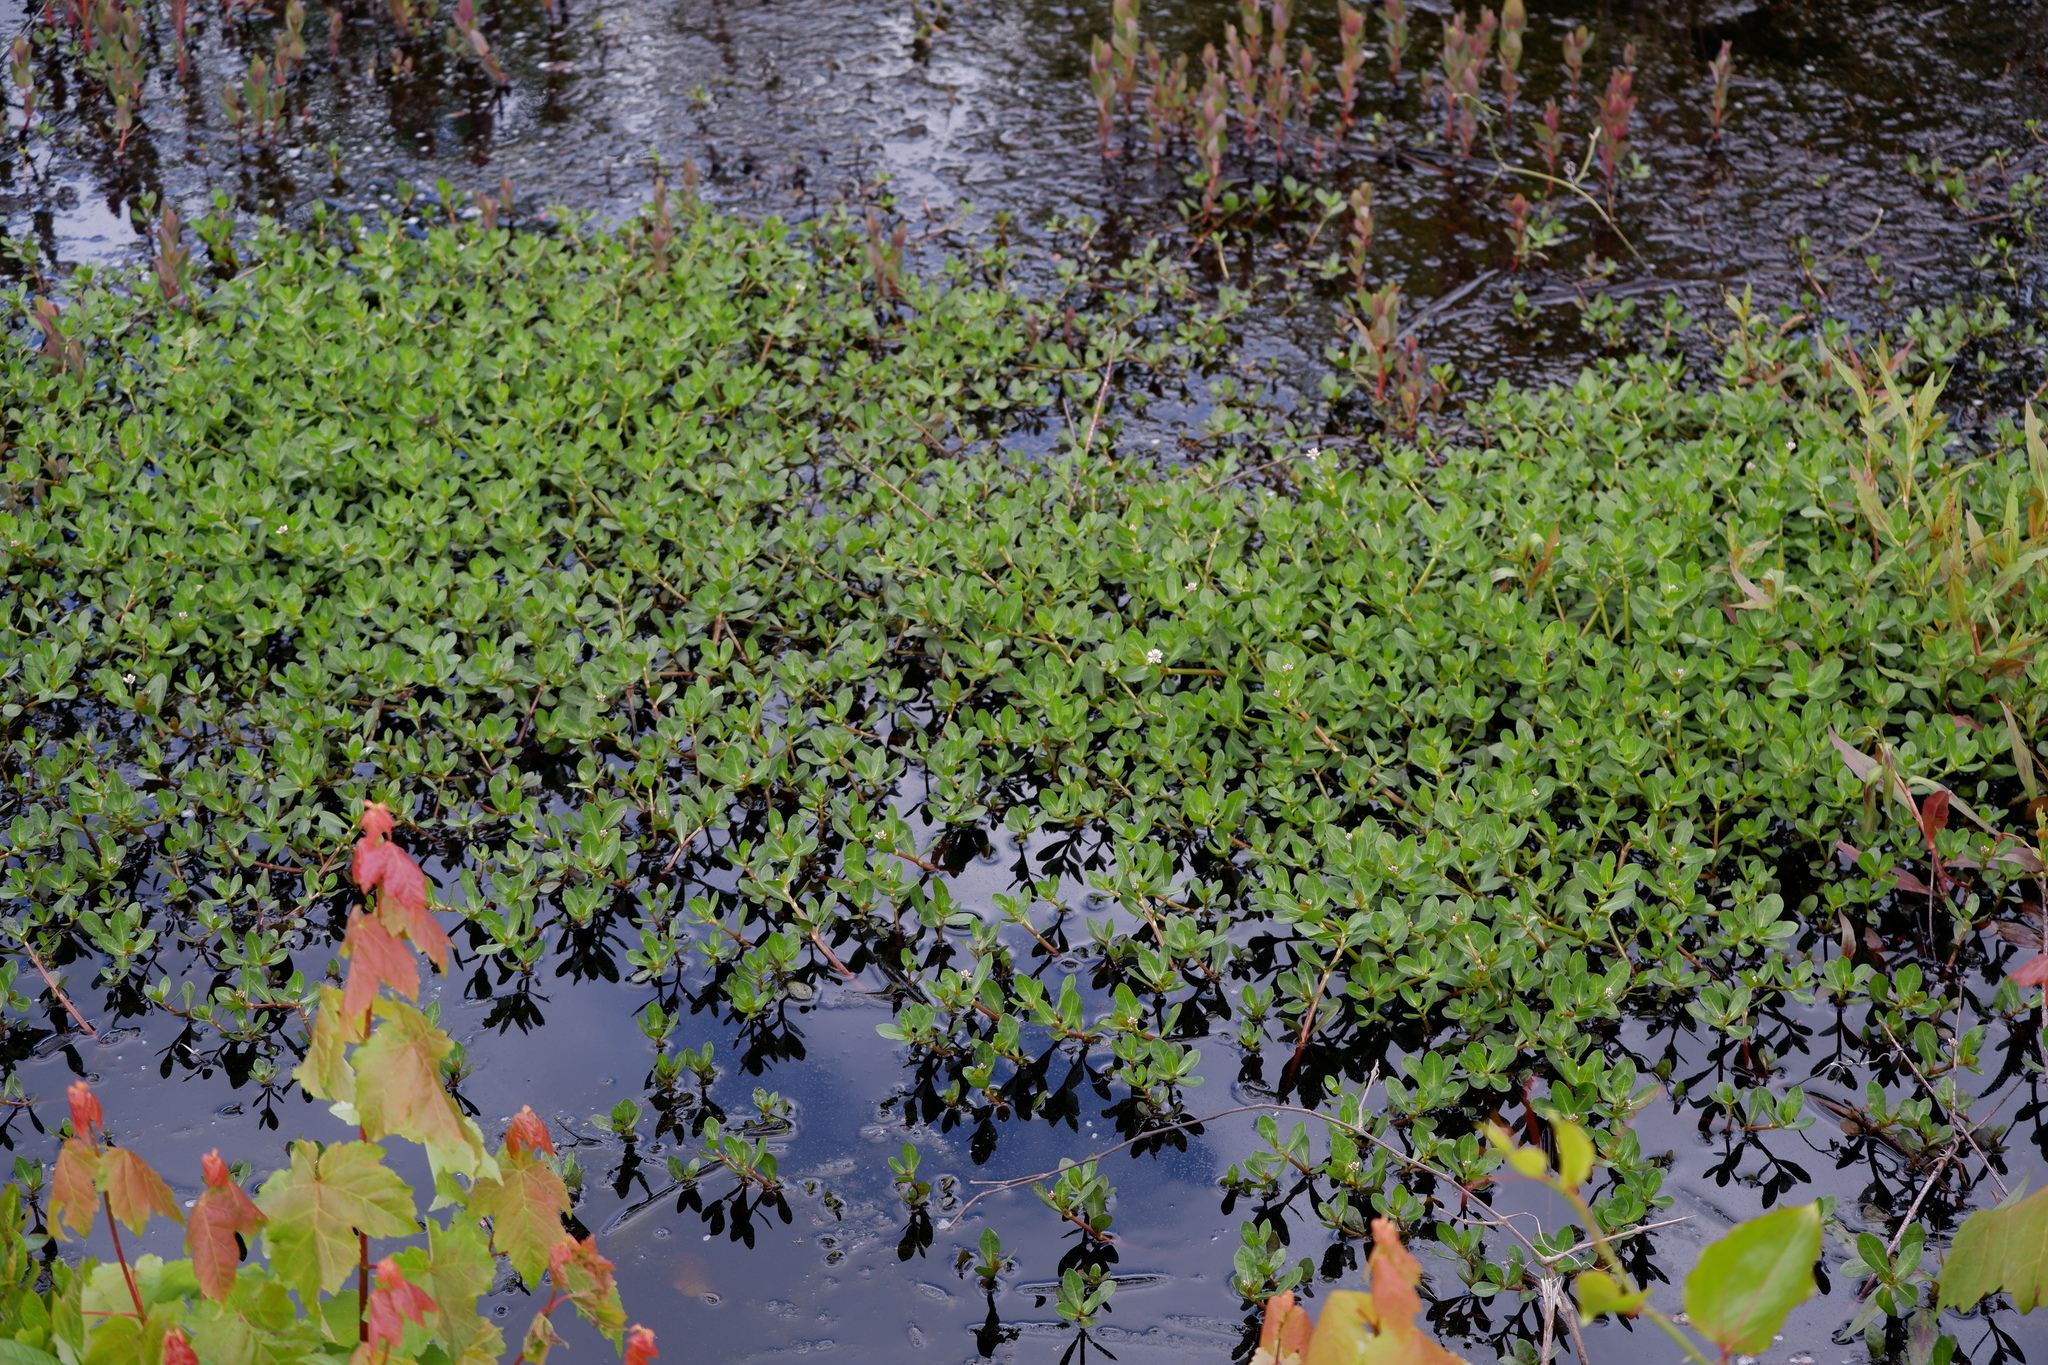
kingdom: Plantae
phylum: Tracheophyta
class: Magnoliopsida
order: Caryophyllales
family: Amaranthaceae
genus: Alternanthera
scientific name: Alternanthera philoxeroides
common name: Alligatorweed
